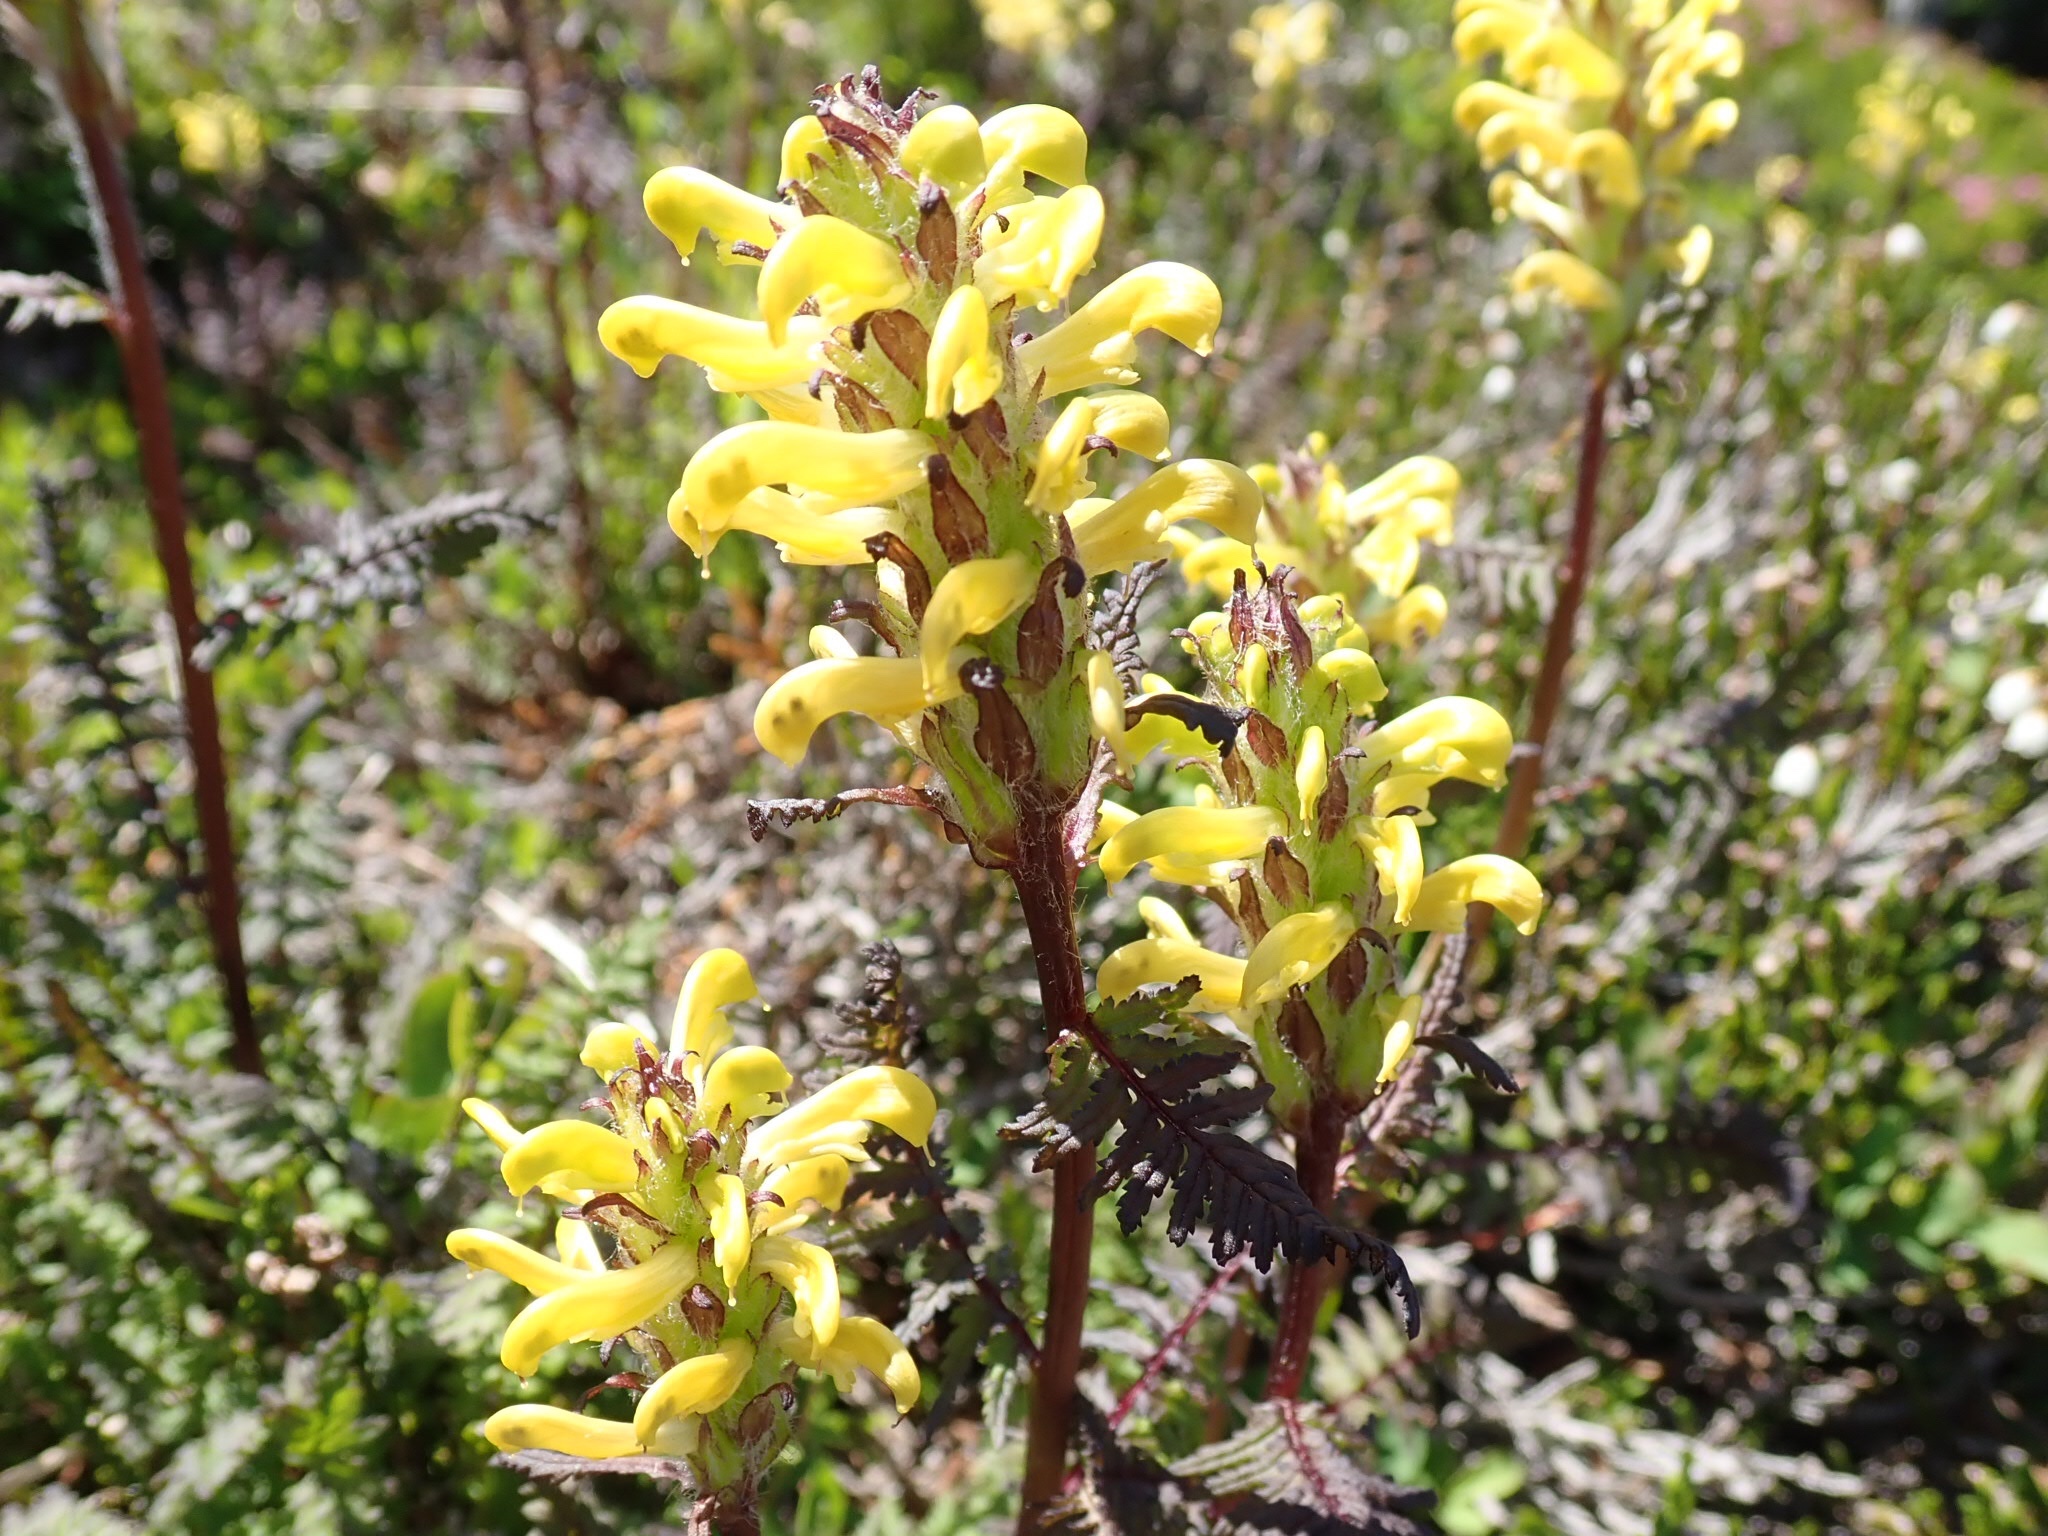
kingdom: Plantae
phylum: Tracheophyta
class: Magnoliopsida
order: Lamiales
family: Orobanchaceae
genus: Pedicularis
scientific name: Pedicularis rainierensis
